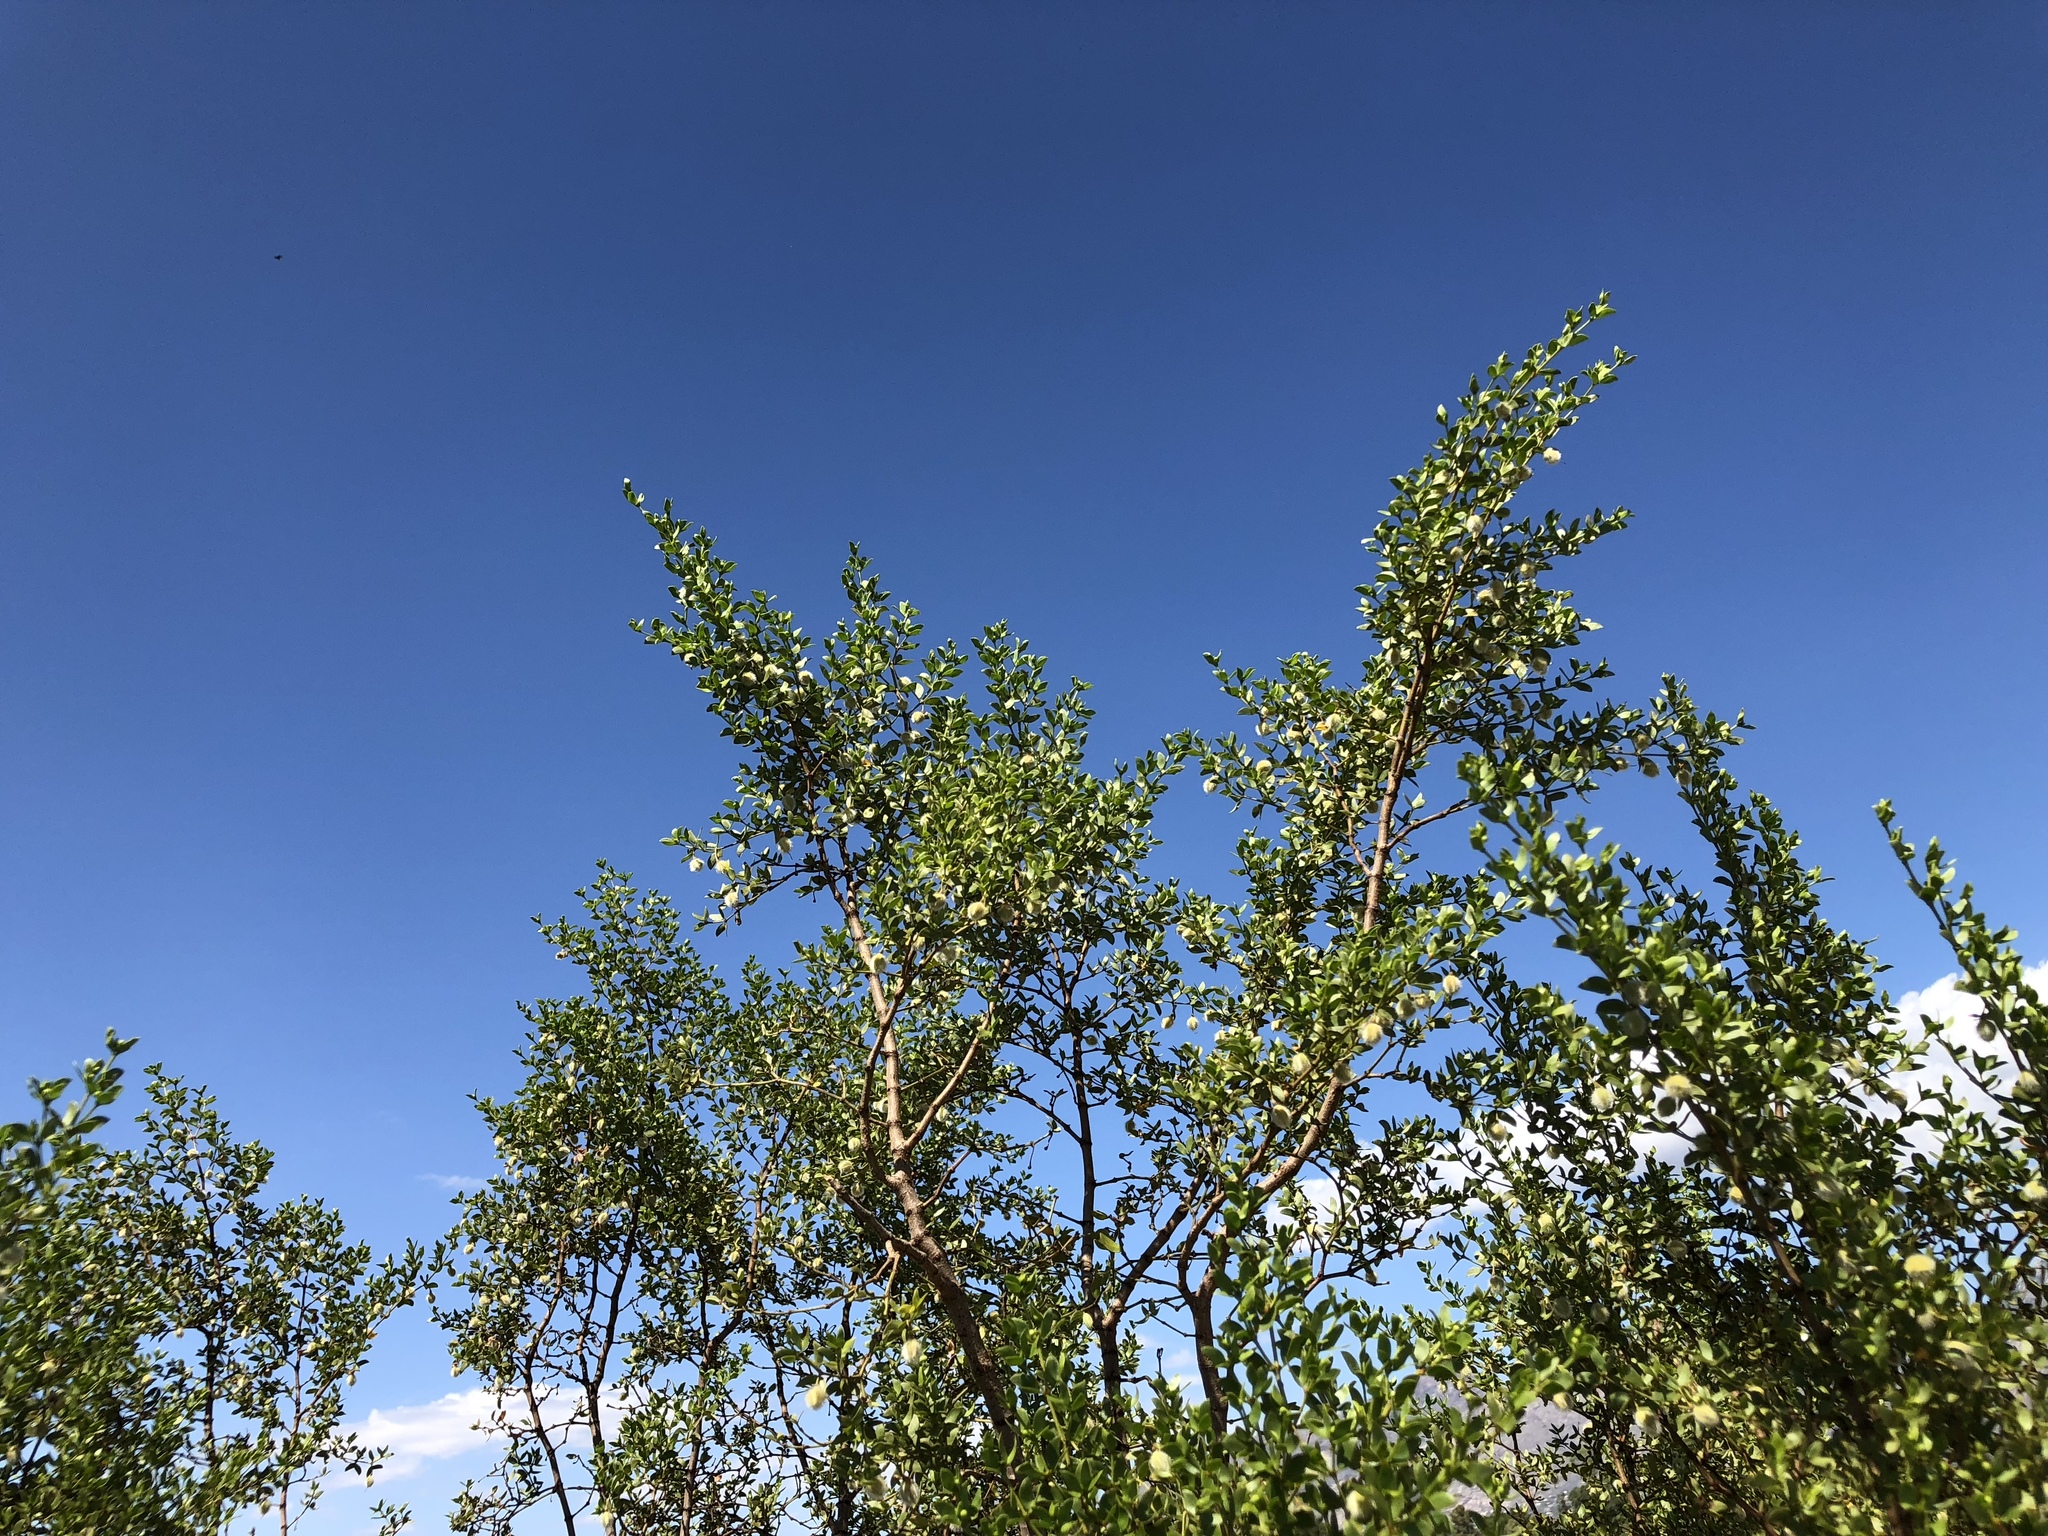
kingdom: Plantae
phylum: Tracheophyta
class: Magnoliopsida
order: Zygophyllales
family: Zygophyllaceae
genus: Larrea
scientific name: Larrea tridentata
